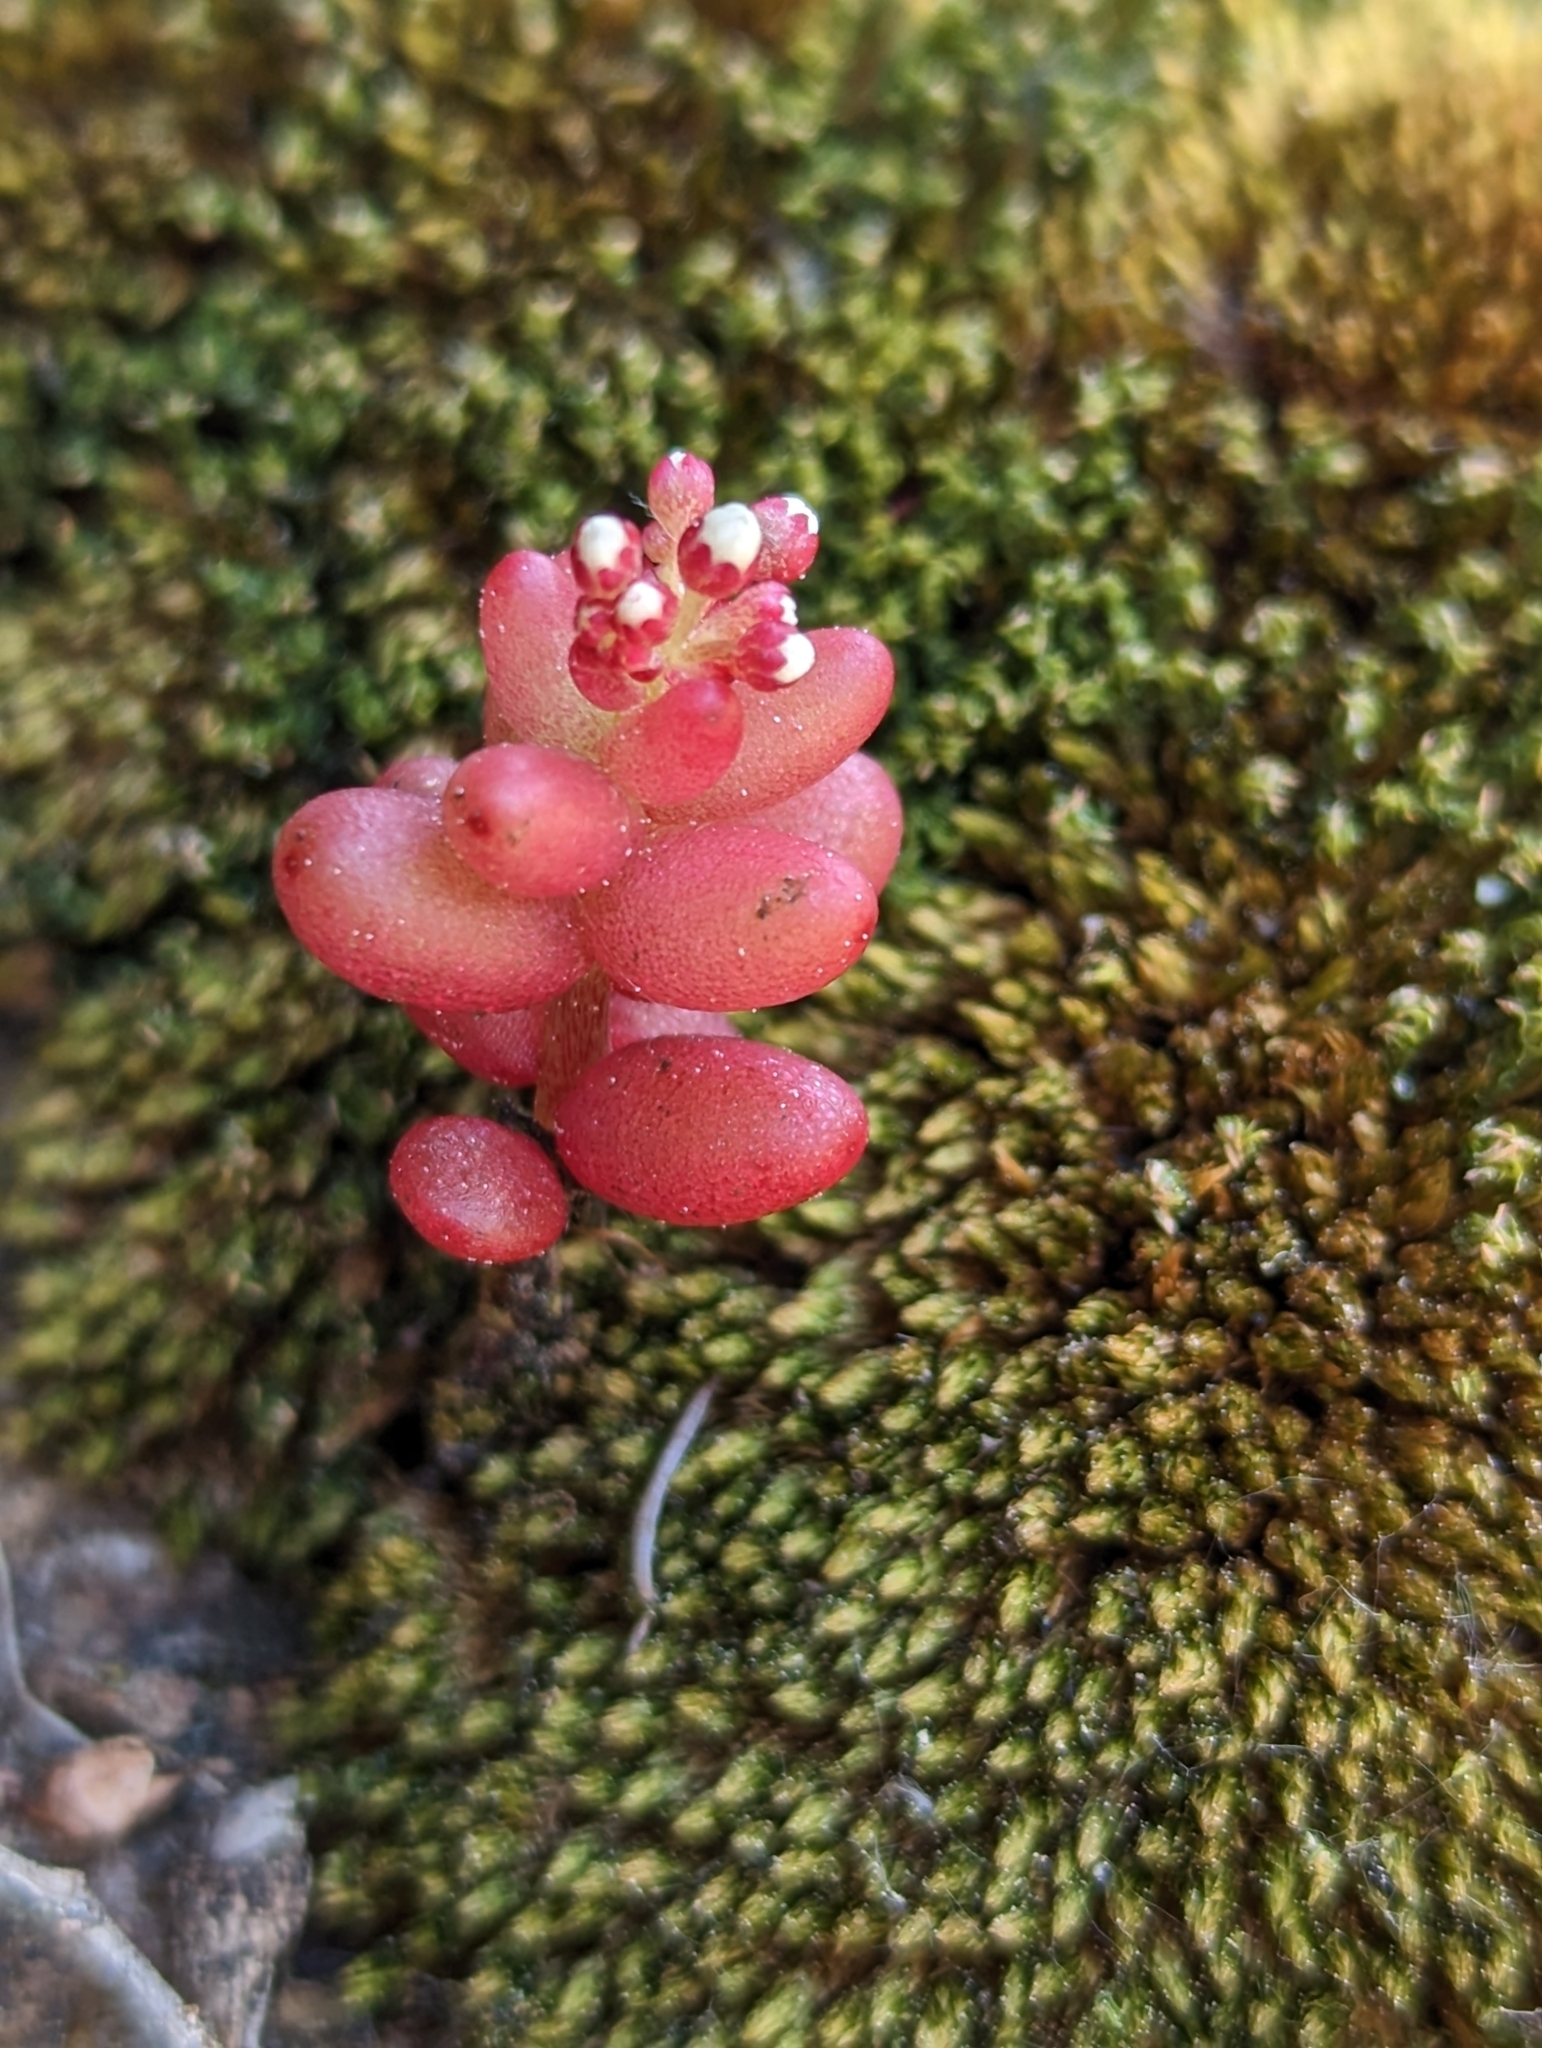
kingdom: Plantae
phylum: Tracheophyta
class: Magnoliopsida
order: Saxifragales
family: Crassulaceae
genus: Sedum
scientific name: Sedum caeruleum
